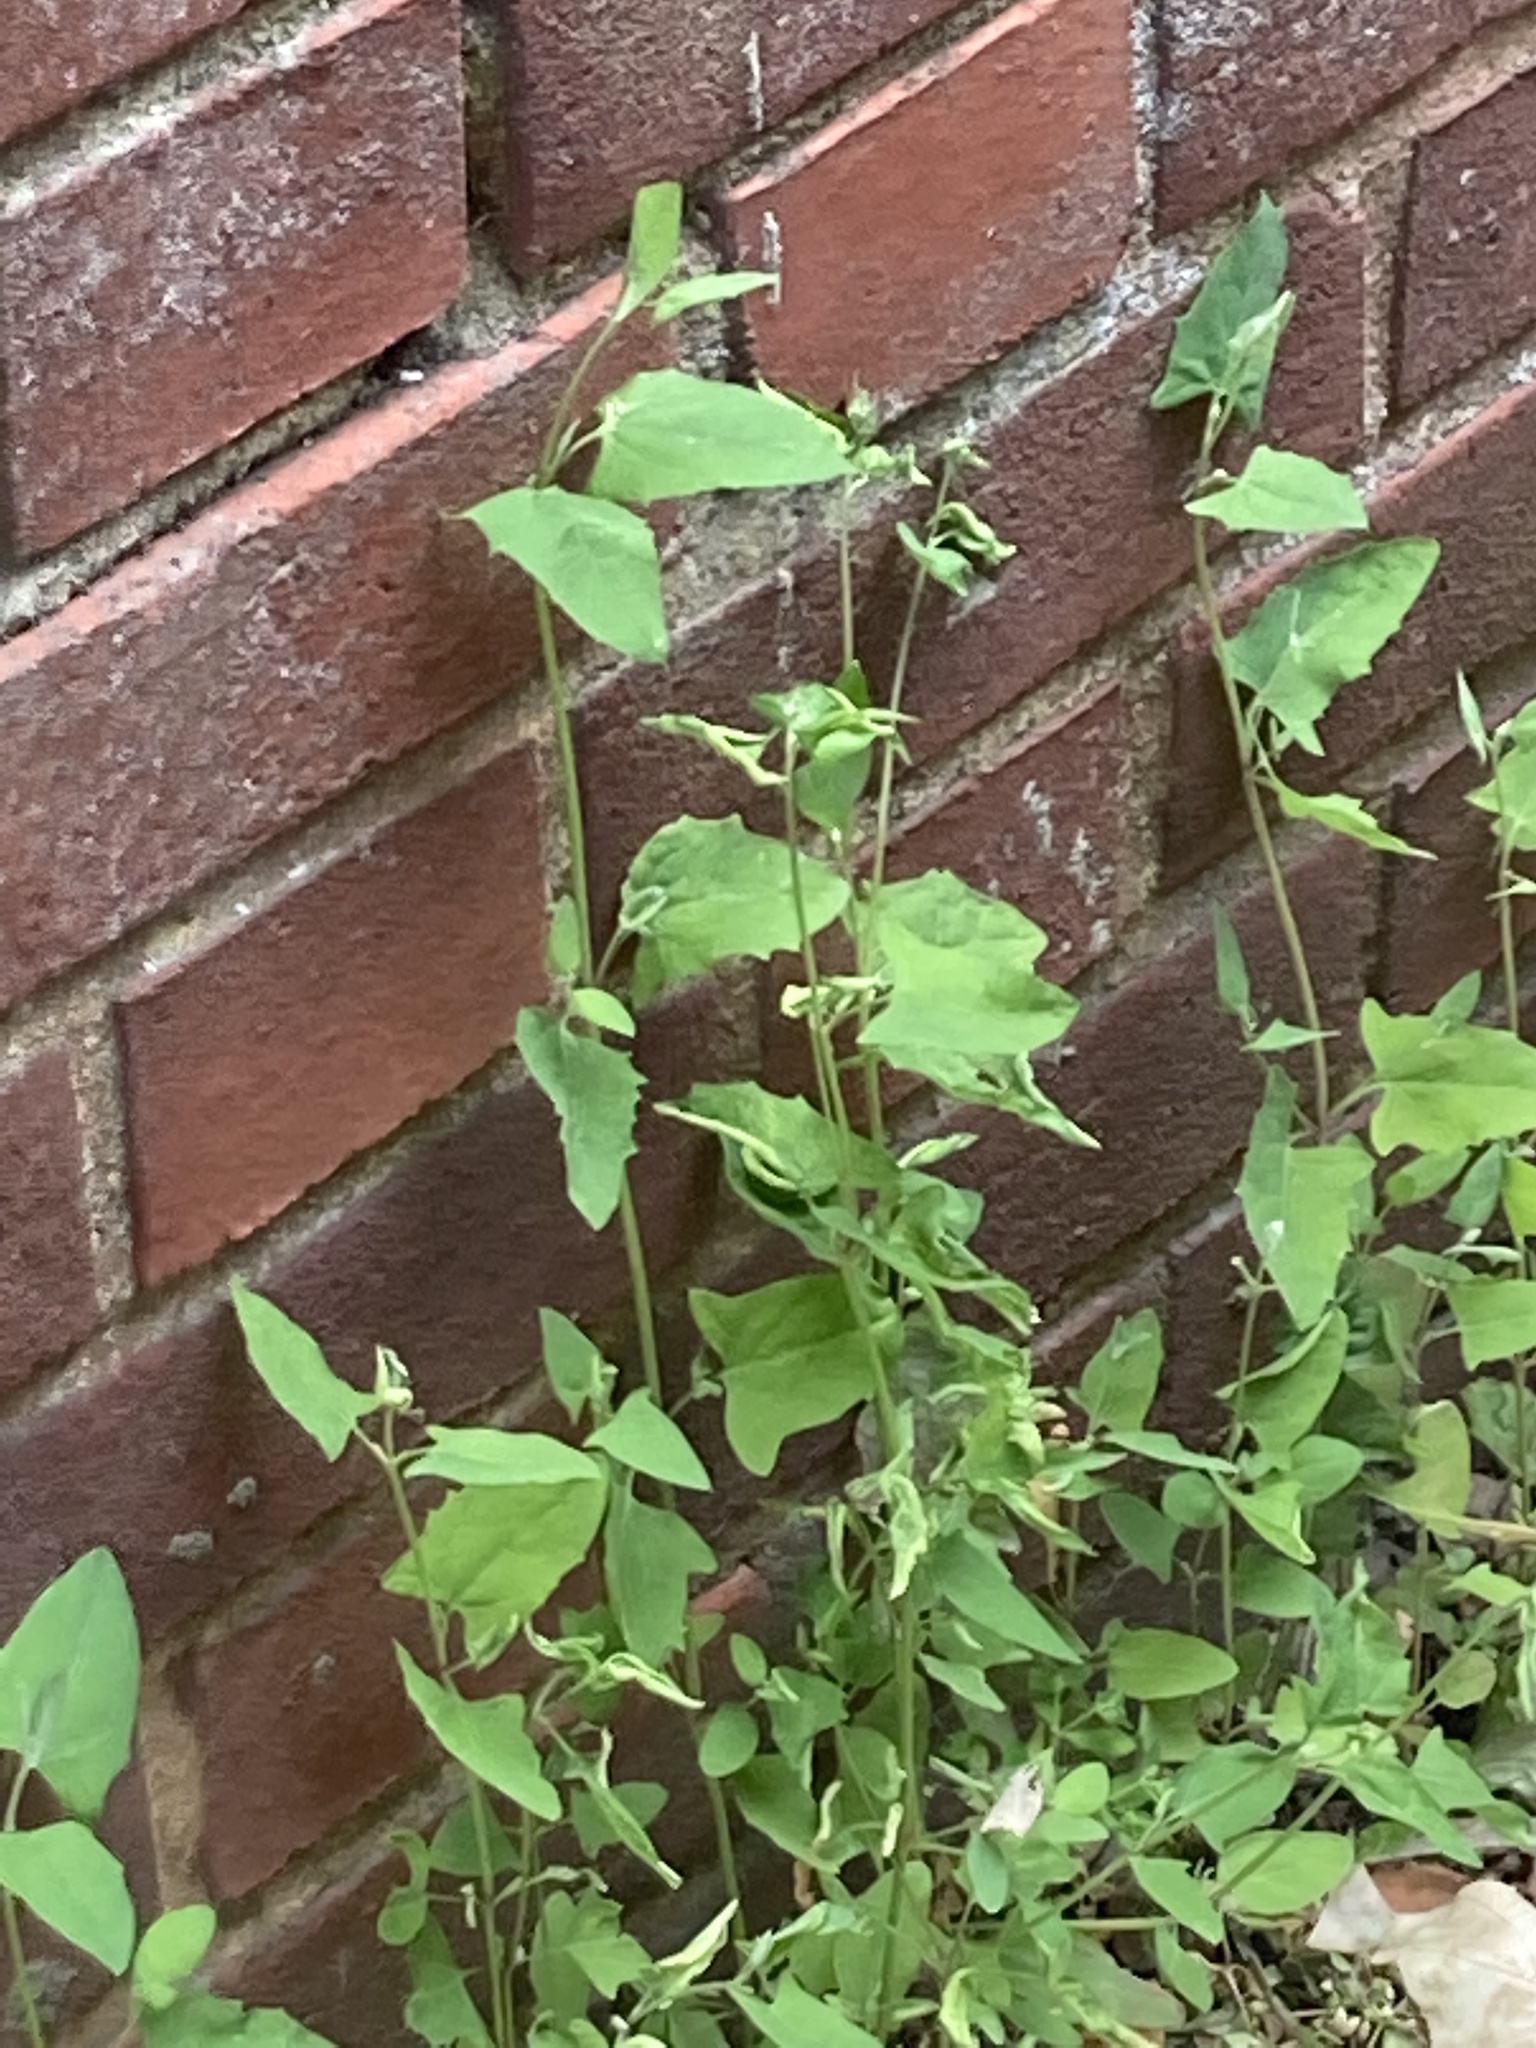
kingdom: Plantae
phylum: Tracheophyta
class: Magnoliopsida
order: Caryophyllales
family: Amaranthaceae
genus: Atriplex
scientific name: Atriplex patula
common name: Common orache
